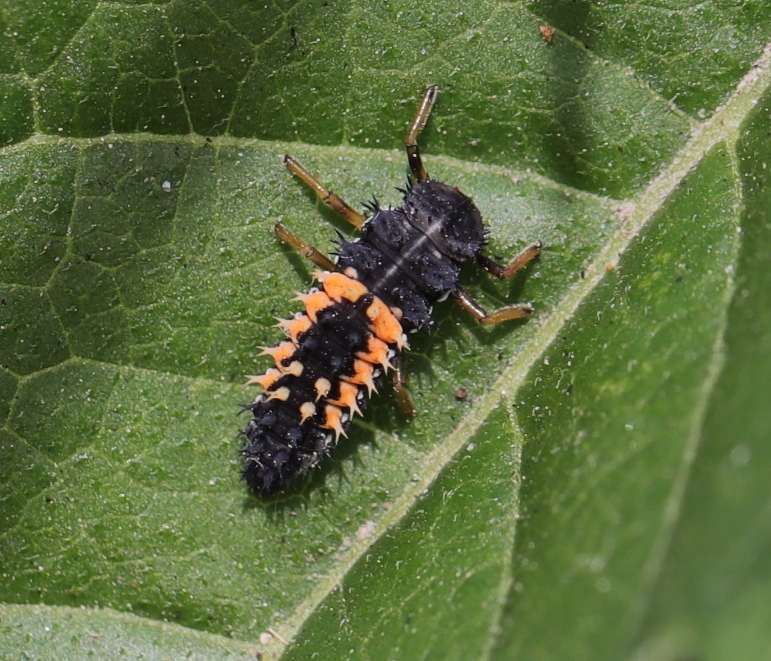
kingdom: Animalia
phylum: Arthropoda
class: Insecta
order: Coleoptera
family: Coccinellidae
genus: Harmonia
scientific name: Harmonia axyridis
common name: Harlequin ladybird
